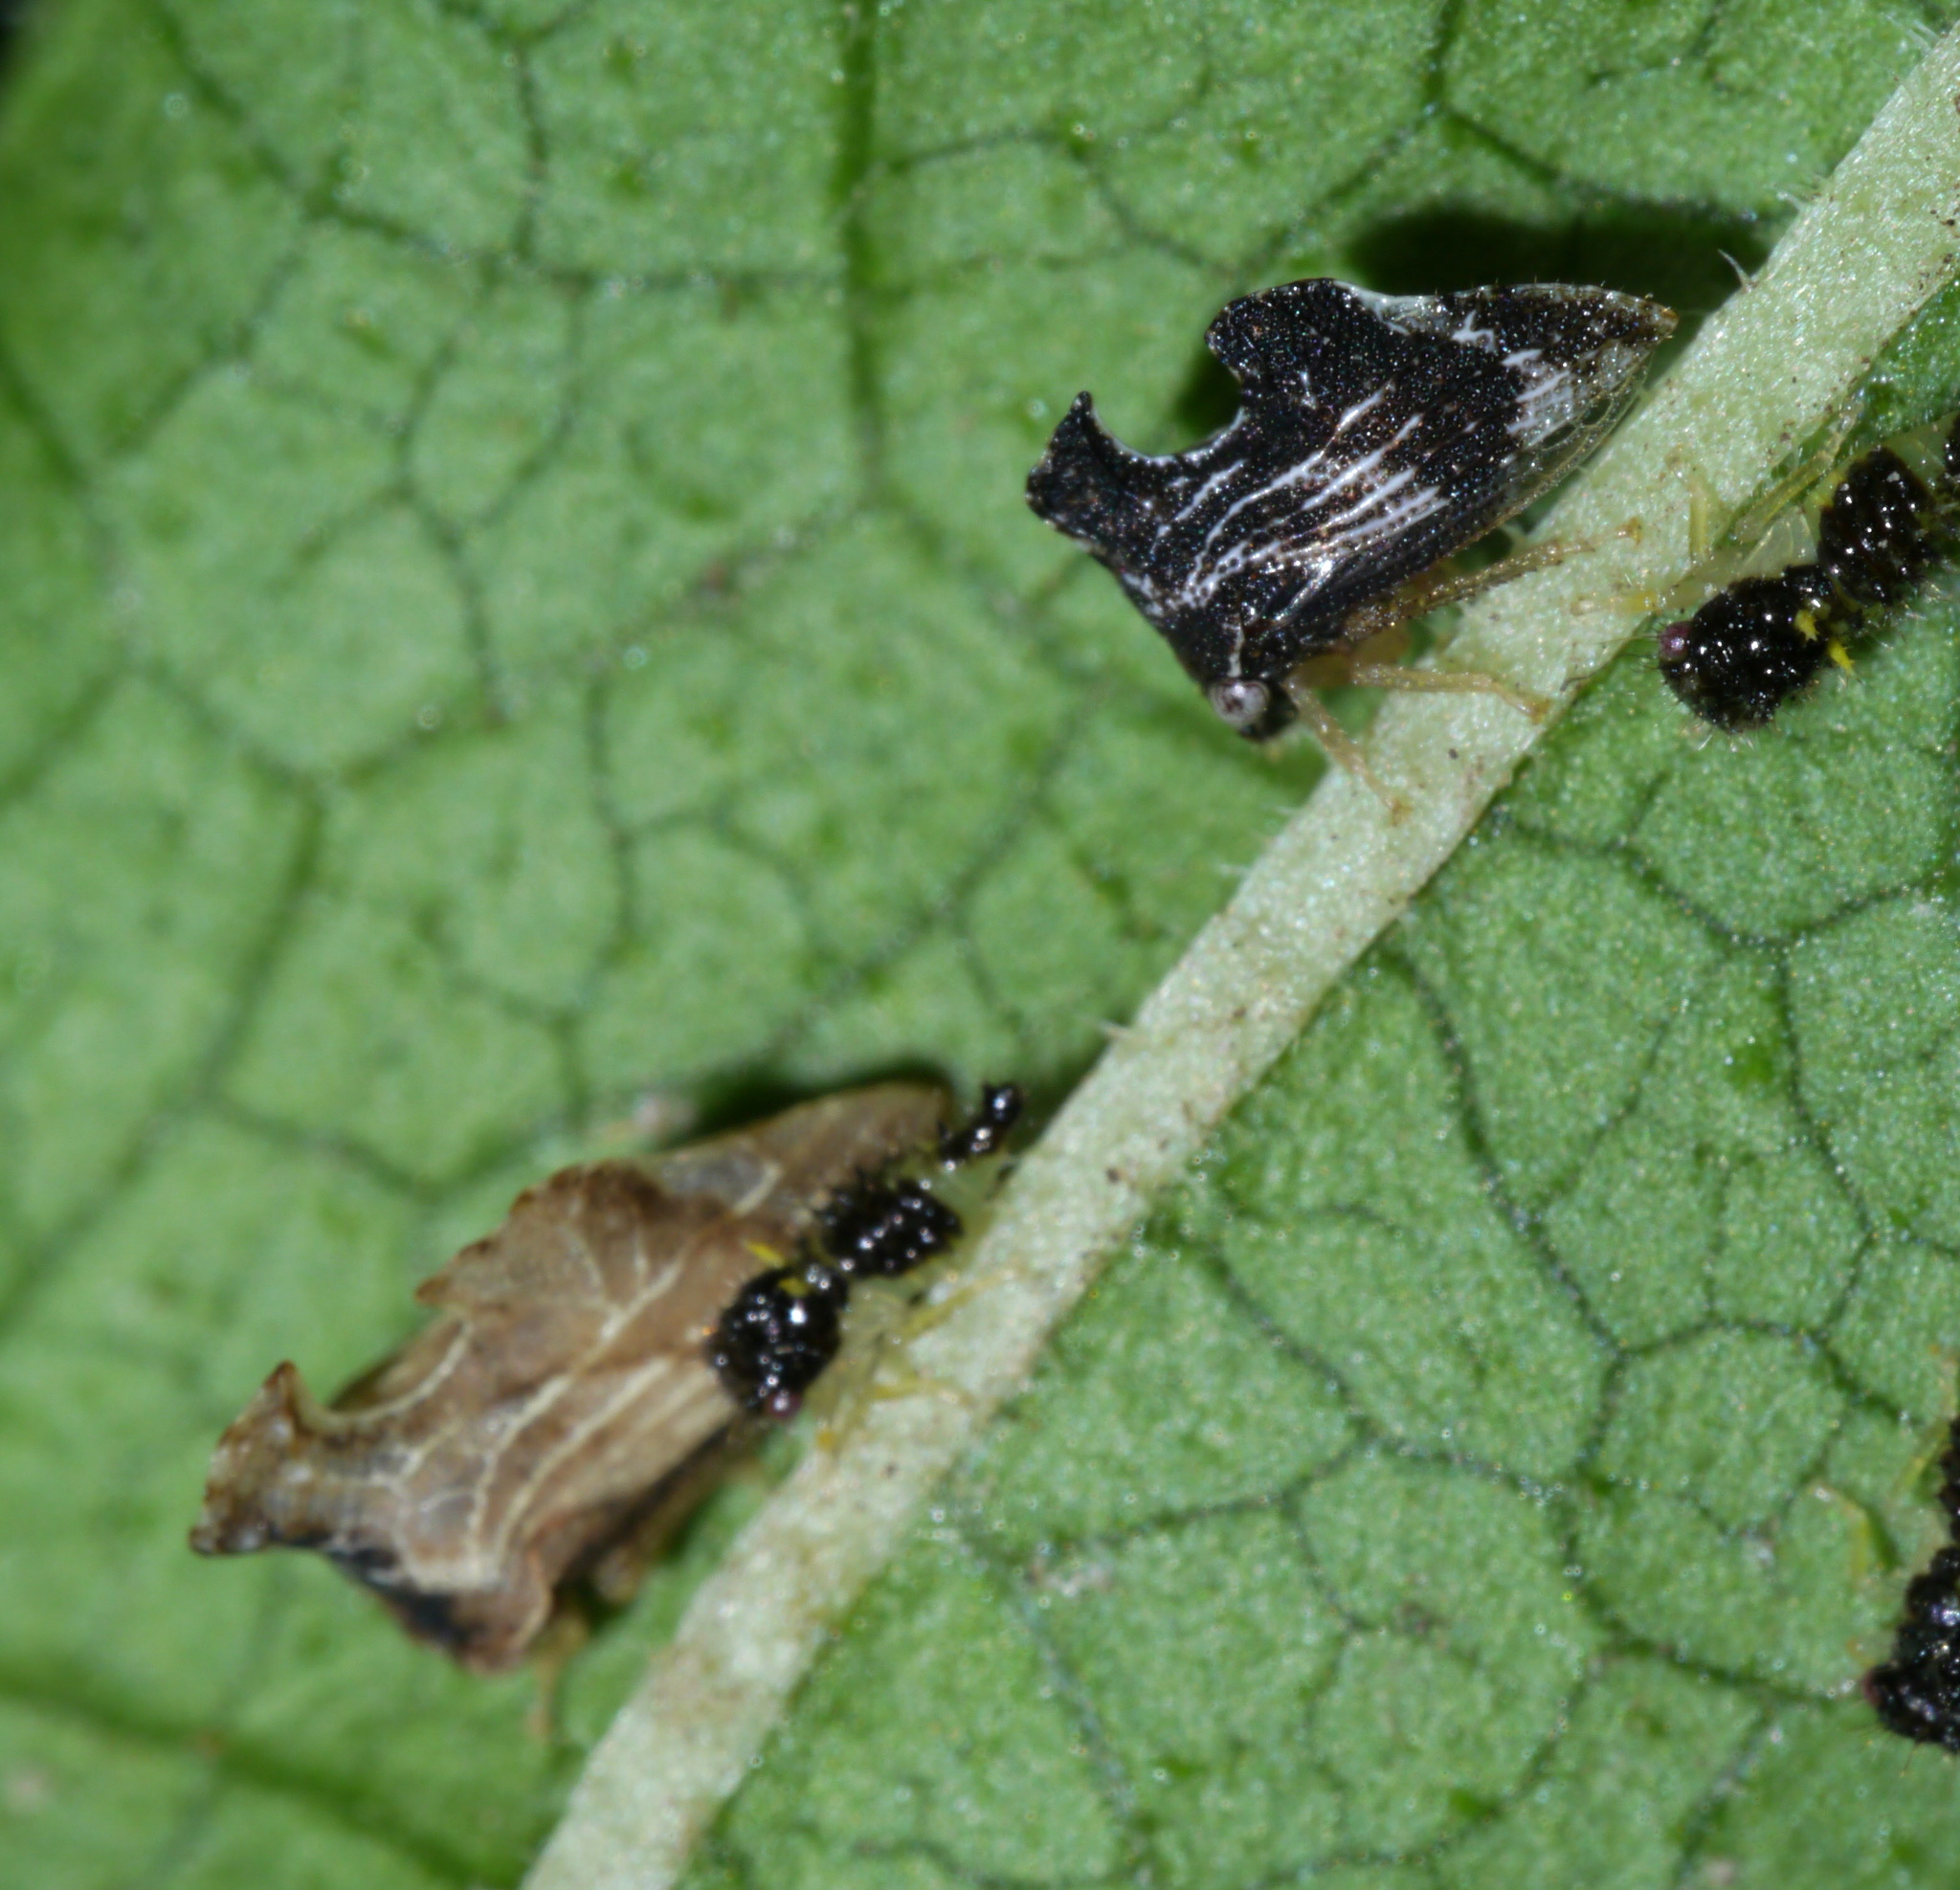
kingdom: Animalia
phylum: Arthropoda
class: Insecta
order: Hemiptera
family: Membracidae
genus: Entylia
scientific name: Entylia carinata
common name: Keeled treehopper
